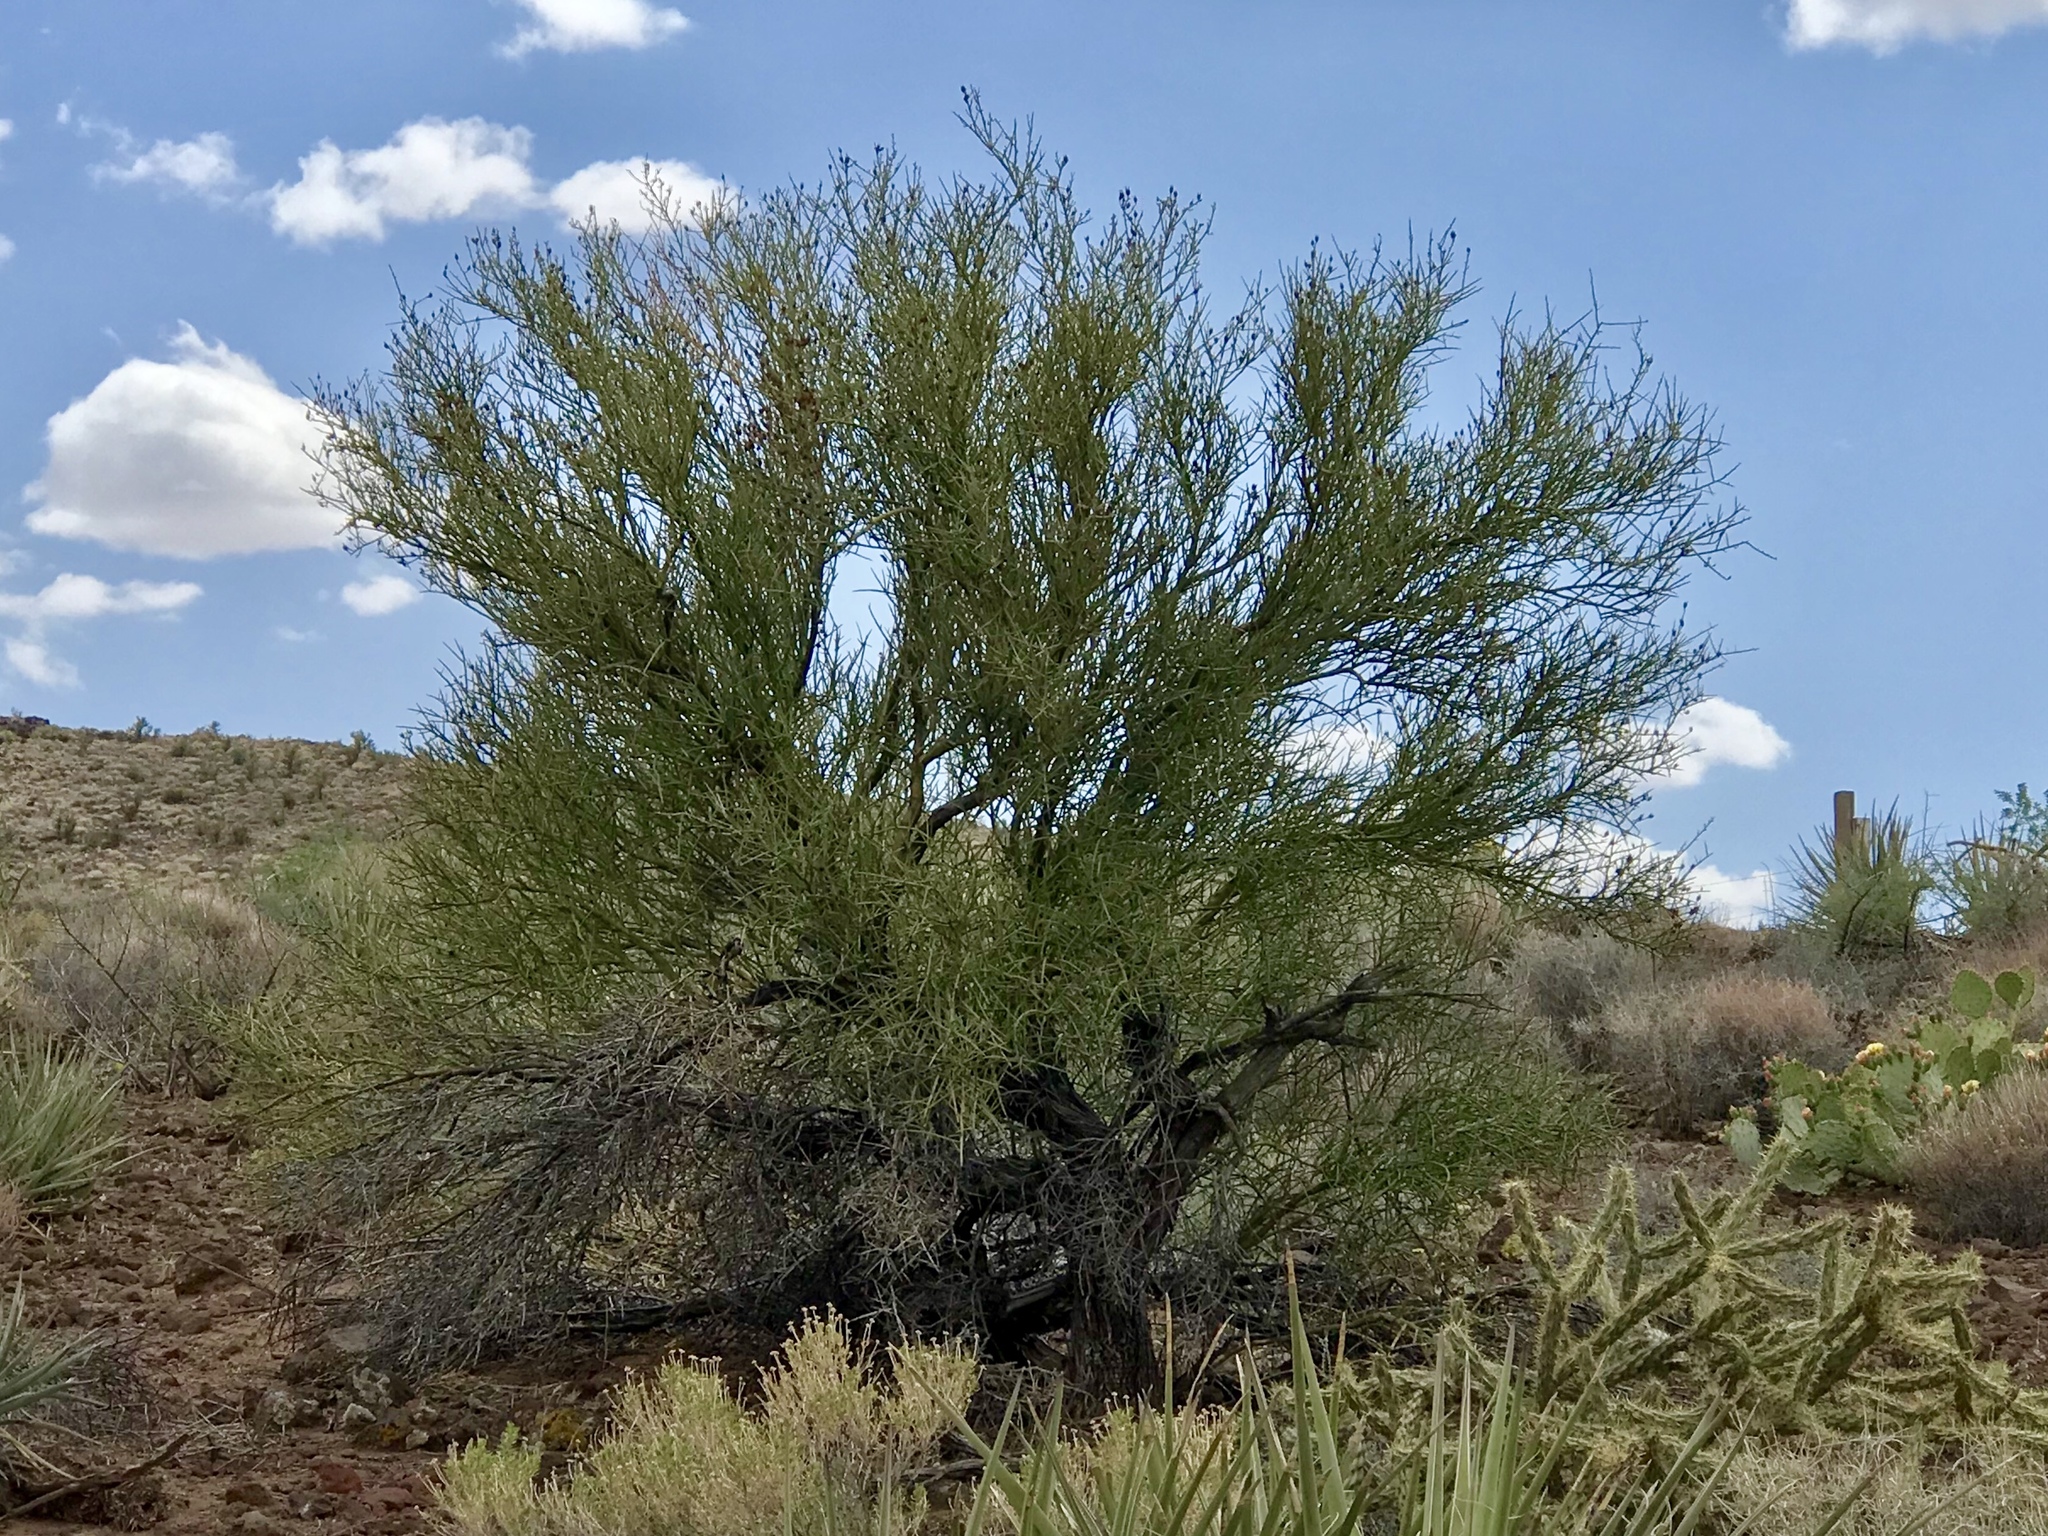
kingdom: Plantae
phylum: Tracheophyta
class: Magnoliopsida
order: Celastrales
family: Celastraceae
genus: Canotia
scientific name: Canotia holacantha
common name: Crucifixion thorns
